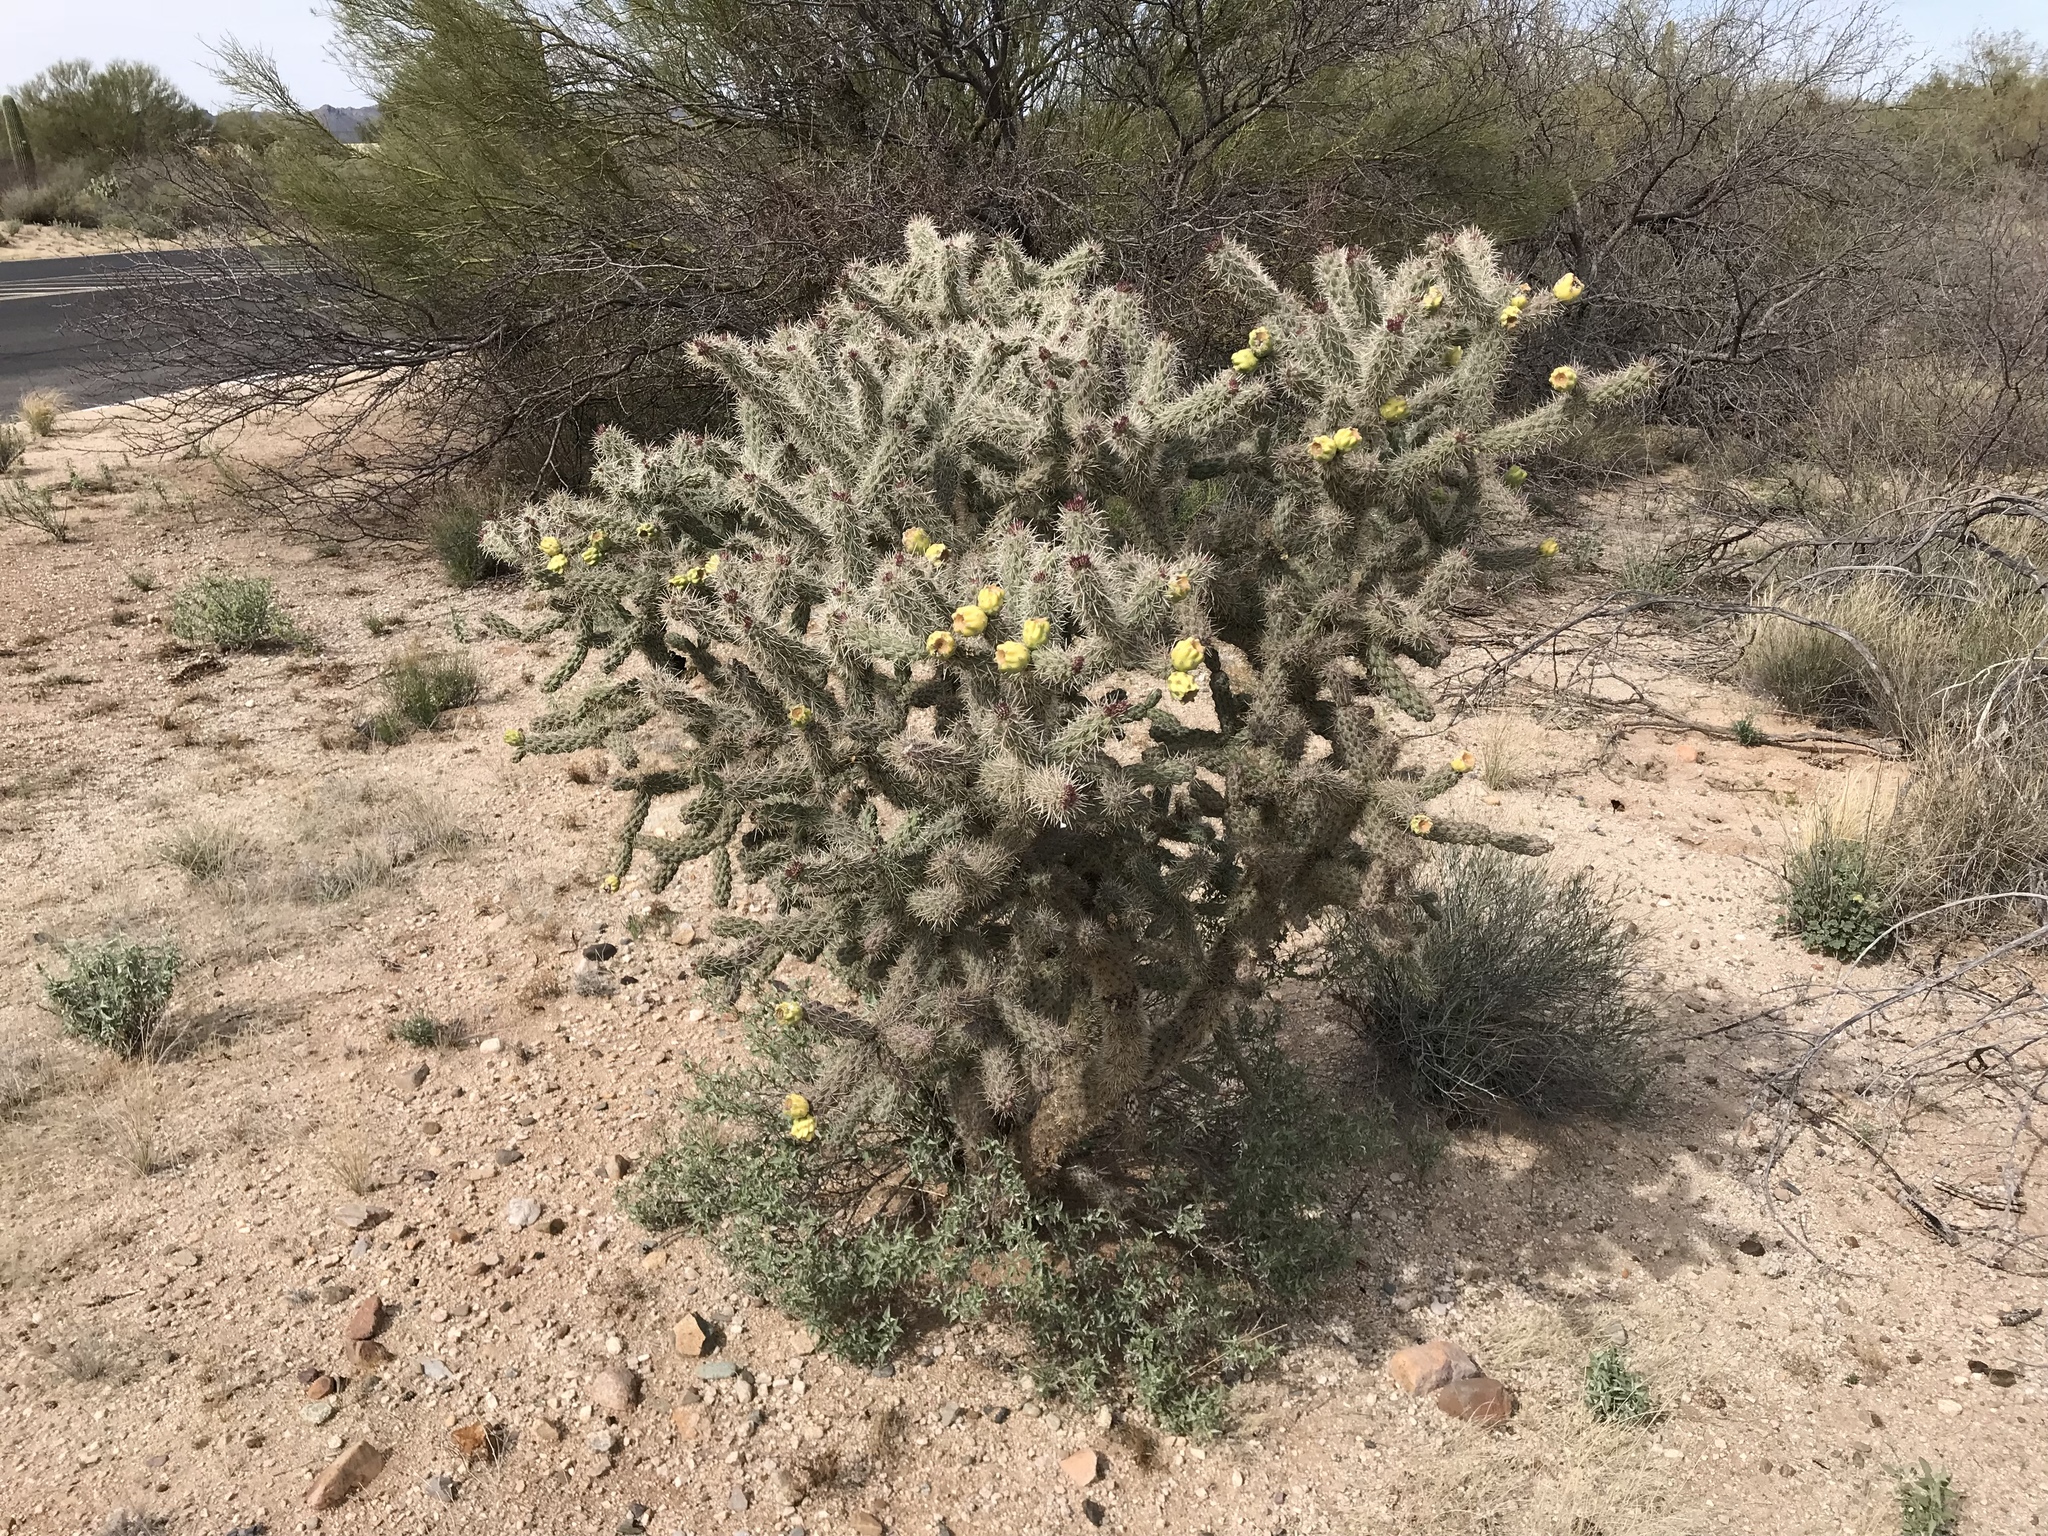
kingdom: Plantae
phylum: Tracheophyta
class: Magnoliopsida
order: Caryophyllales
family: Cactaceae
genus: Cylindropuntia
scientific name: Cylindropuntia imbricata
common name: Candelabrum cactus
